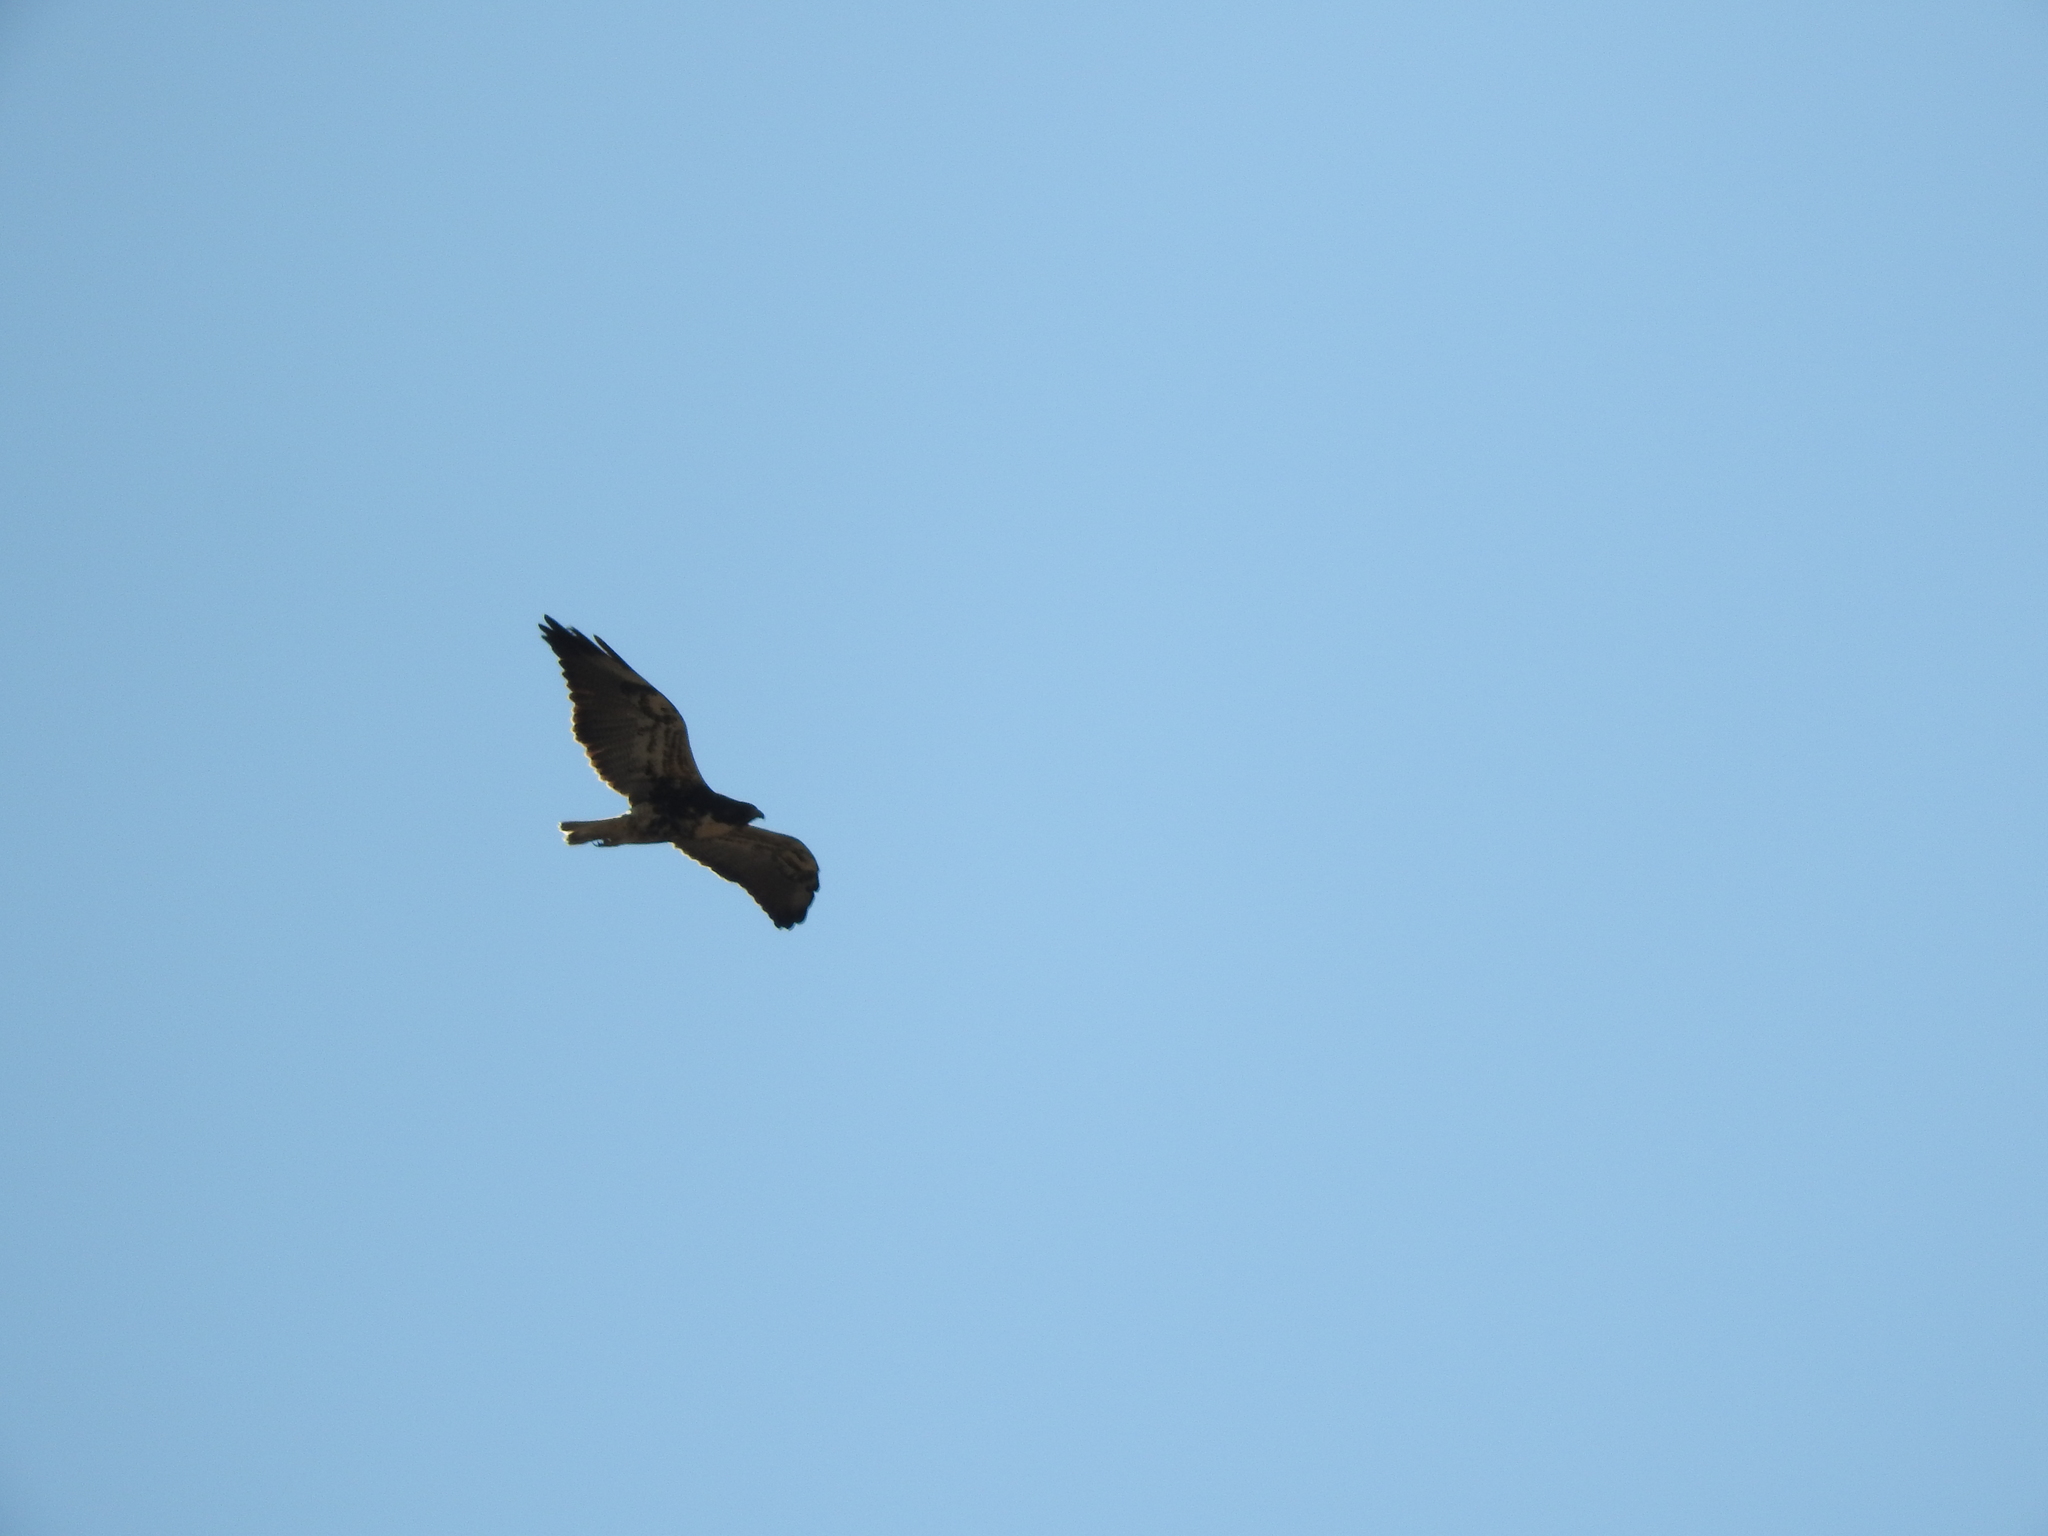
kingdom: Animalia
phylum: Chordata
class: Aves
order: Accipitriformes
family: Accipitridae
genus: Buteo
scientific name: Buteo albicaudatus
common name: White-tailed hawk
